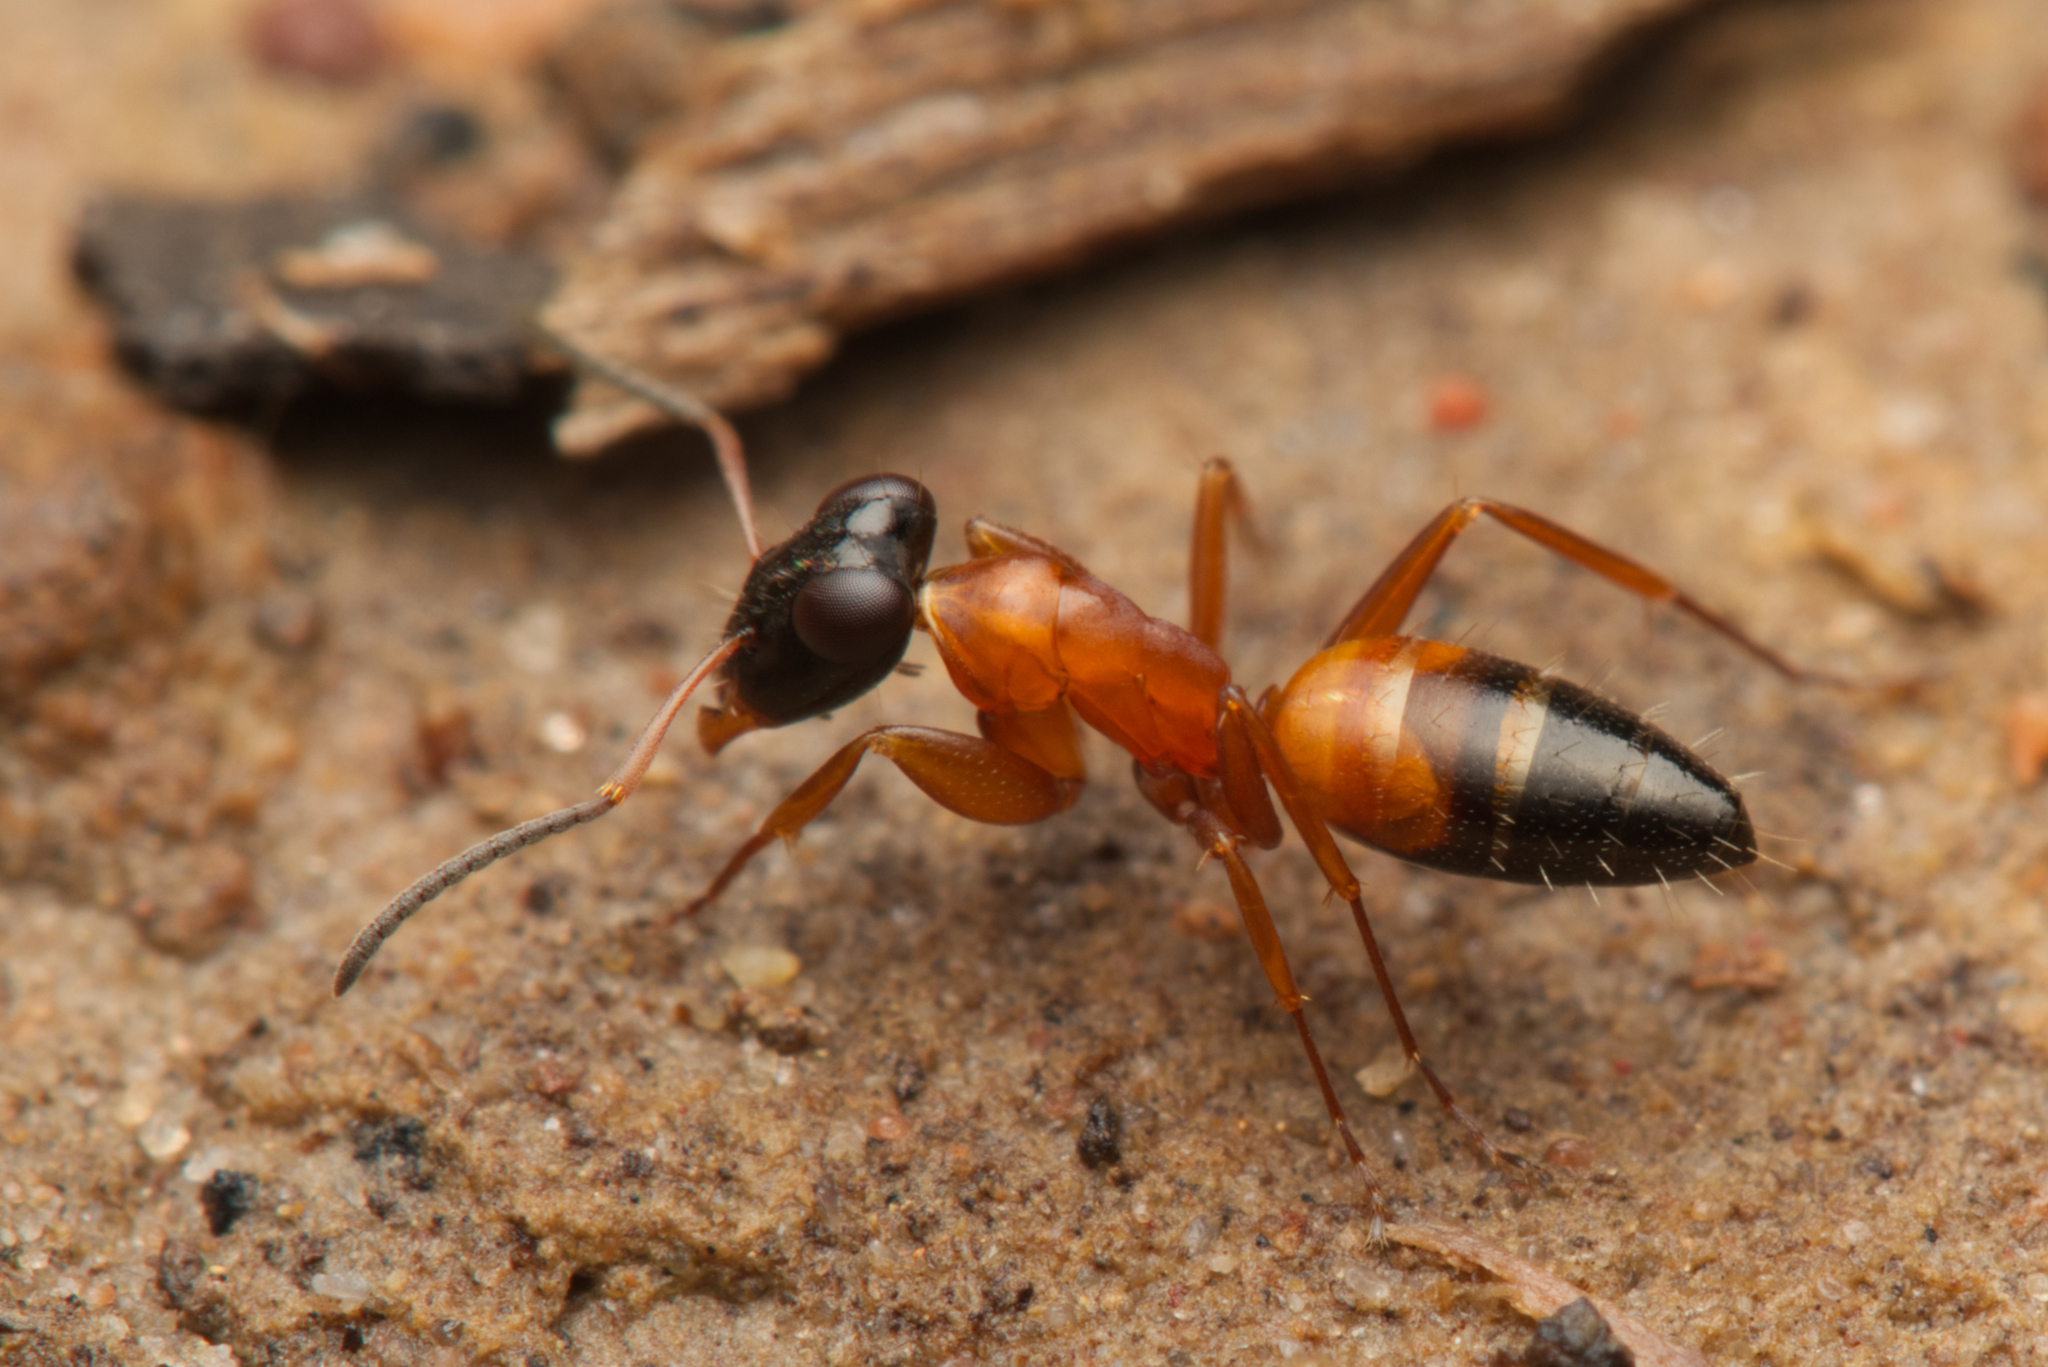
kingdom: Animalia
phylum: Arthropoda
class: Insecta
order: Hymenoptera
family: Formicidae
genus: Opisthopsis
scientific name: Opisthopsis rufithorax
